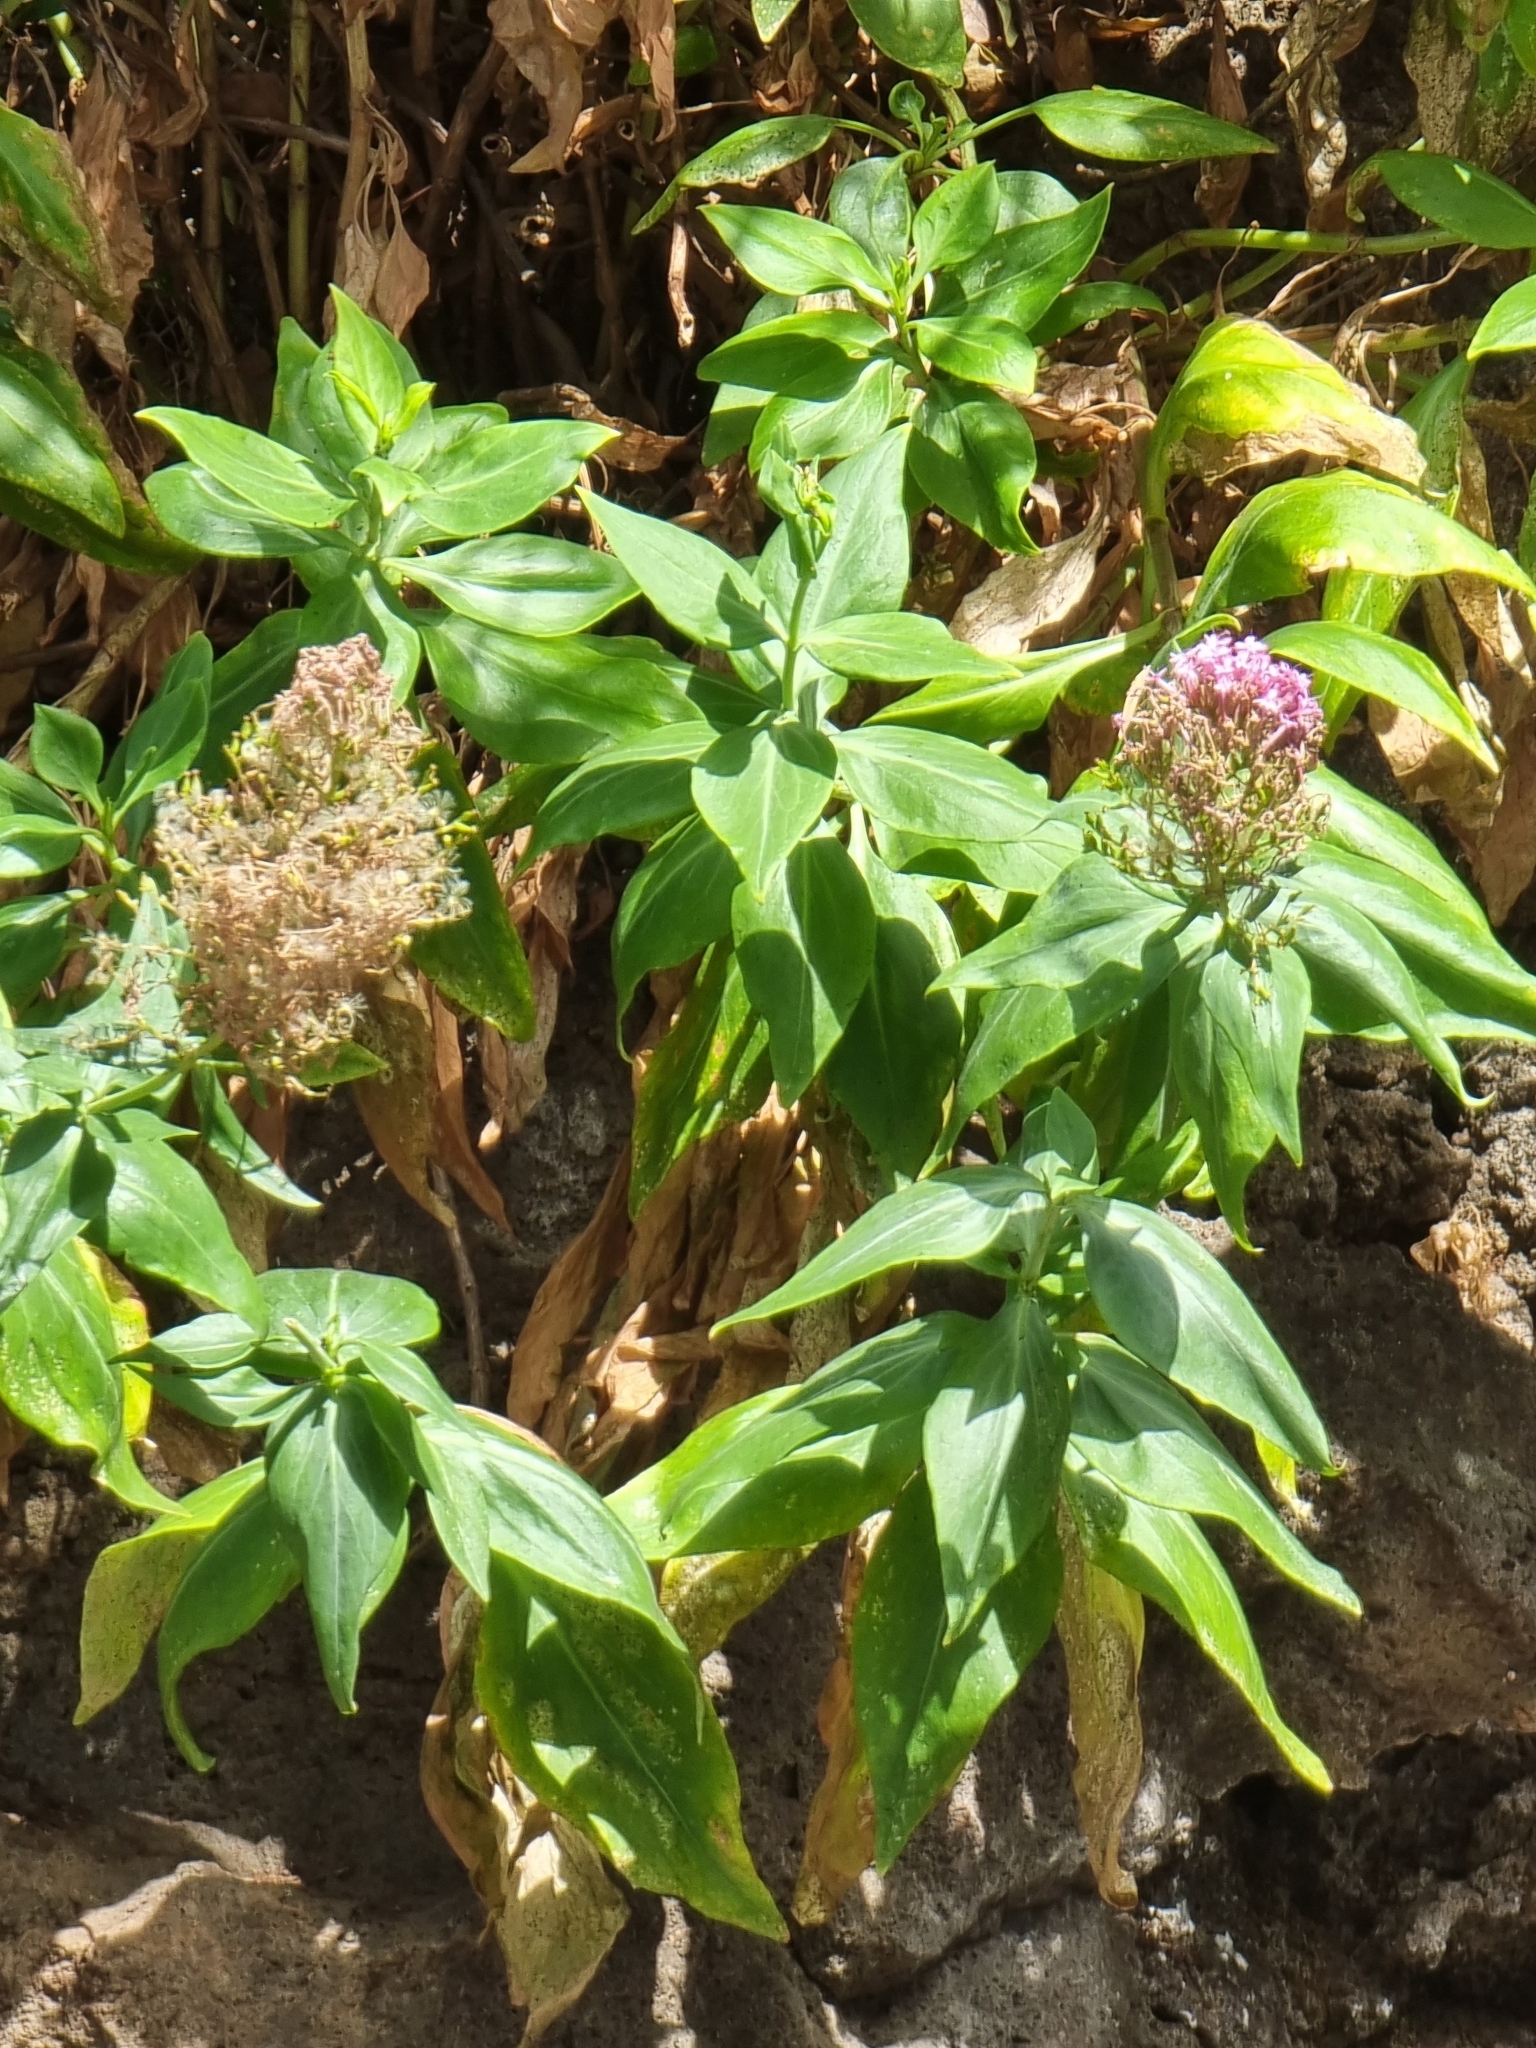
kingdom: Plantae
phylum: Tracheophyta
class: Magnoliopsida
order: Dipsacales
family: Caprifoliaceae
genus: Centranthus
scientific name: Centranthus ruber
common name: Red valerian
